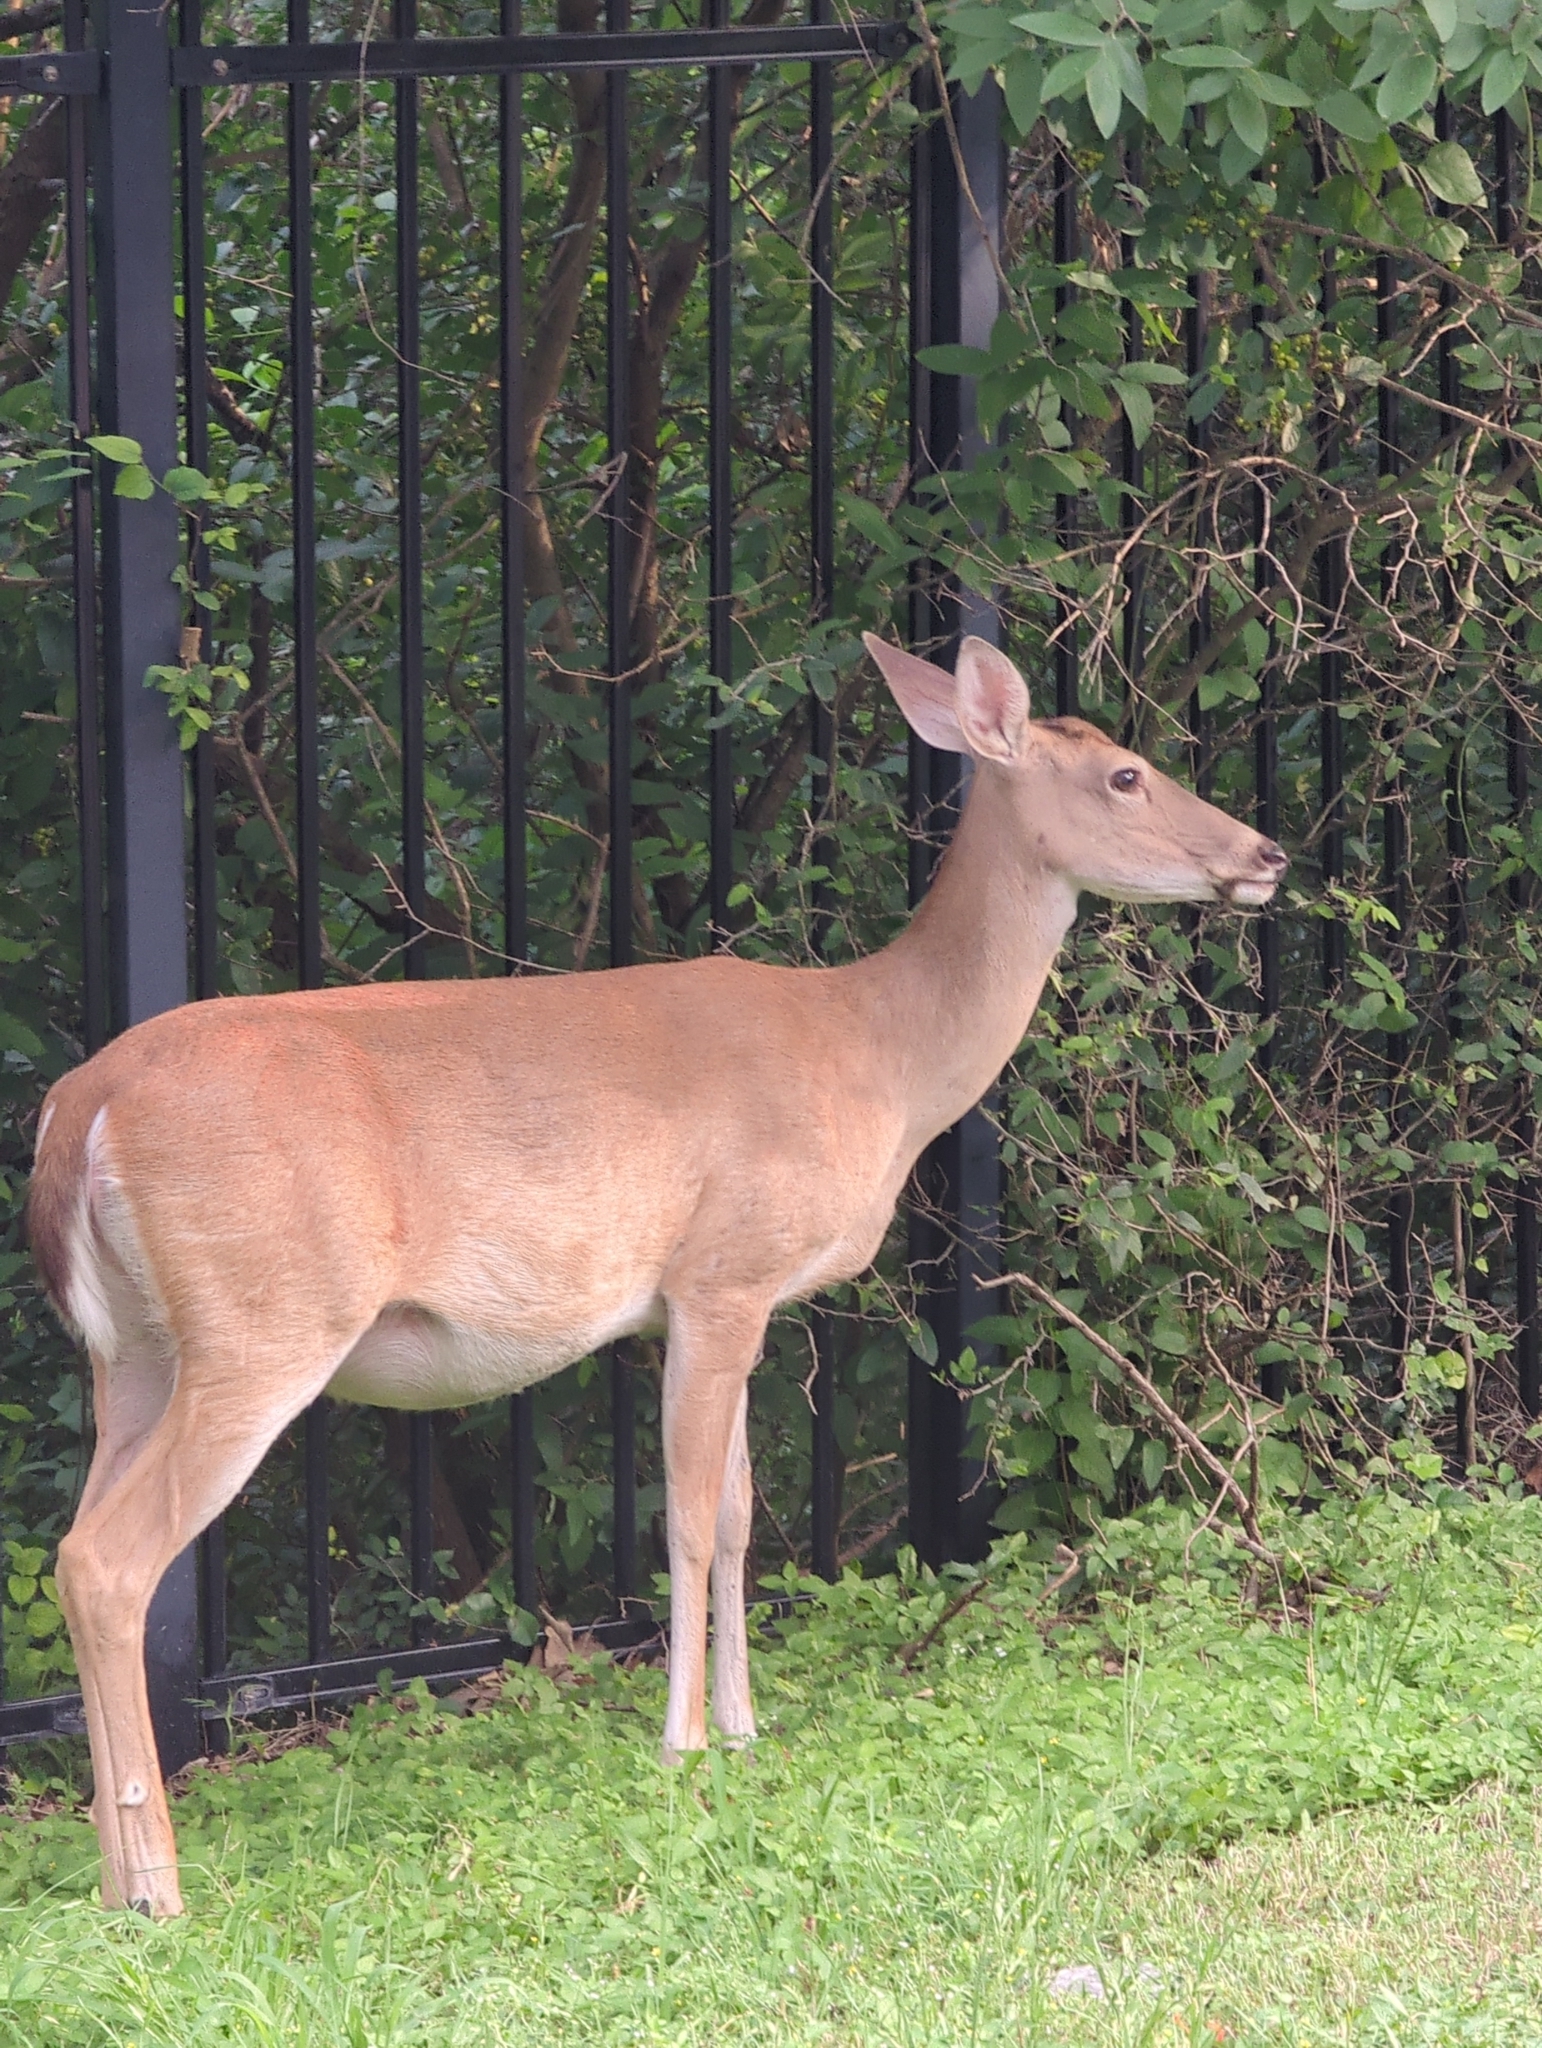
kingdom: Animalia
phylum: Chordata
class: Mammalia
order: Artiodactyla
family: Cervidae
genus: Odocoileus
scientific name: Odocoileus virginianus
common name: White-tailed deer
